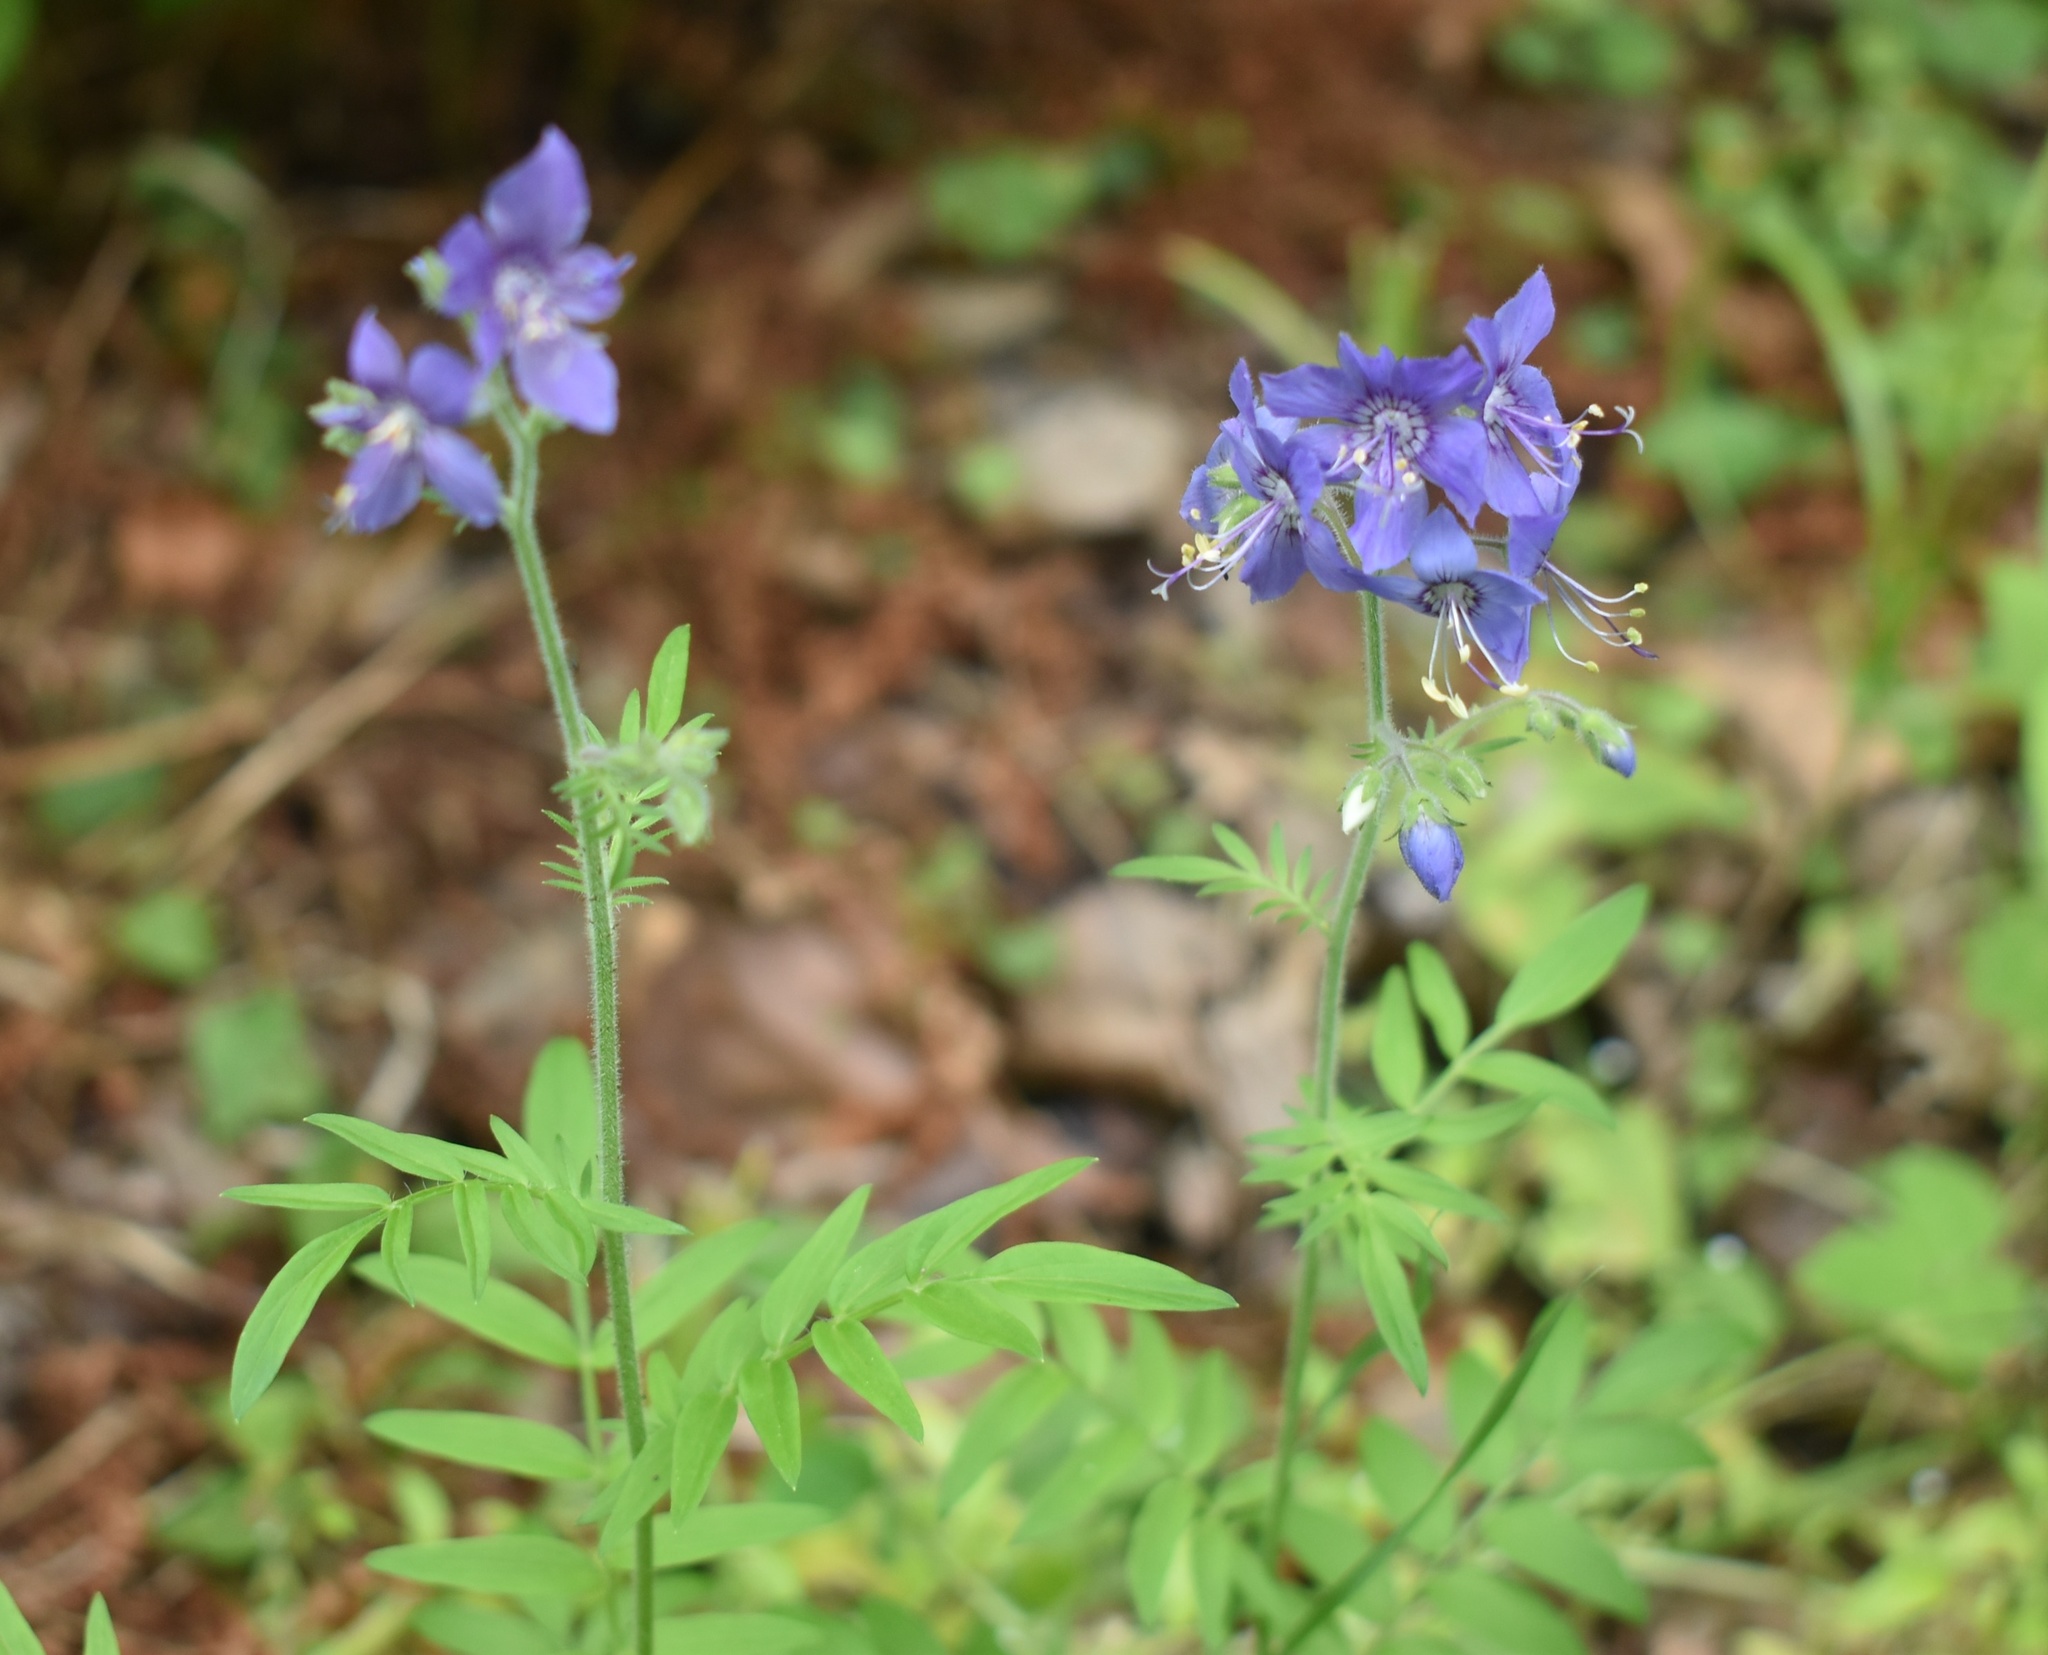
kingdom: Plantae
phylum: Tracheophyta
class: Magnoliopsida
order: Ericales
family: Polemoniaceae
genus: Polemonium
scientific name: Polemonium acutiflorum
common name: Tall jacob's-ladder
